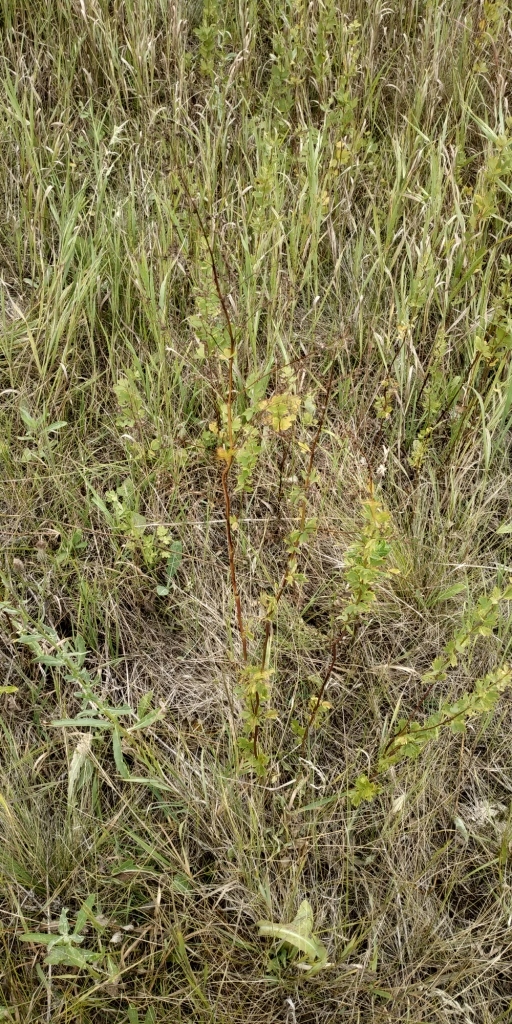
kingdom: Plantae
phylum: Tracheophyta
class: Magnoliopsida
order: Ranunculales
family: Ranunculaceae
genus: Thalictrum
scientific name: Thalictrum simplex
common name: Small meadow-rue
